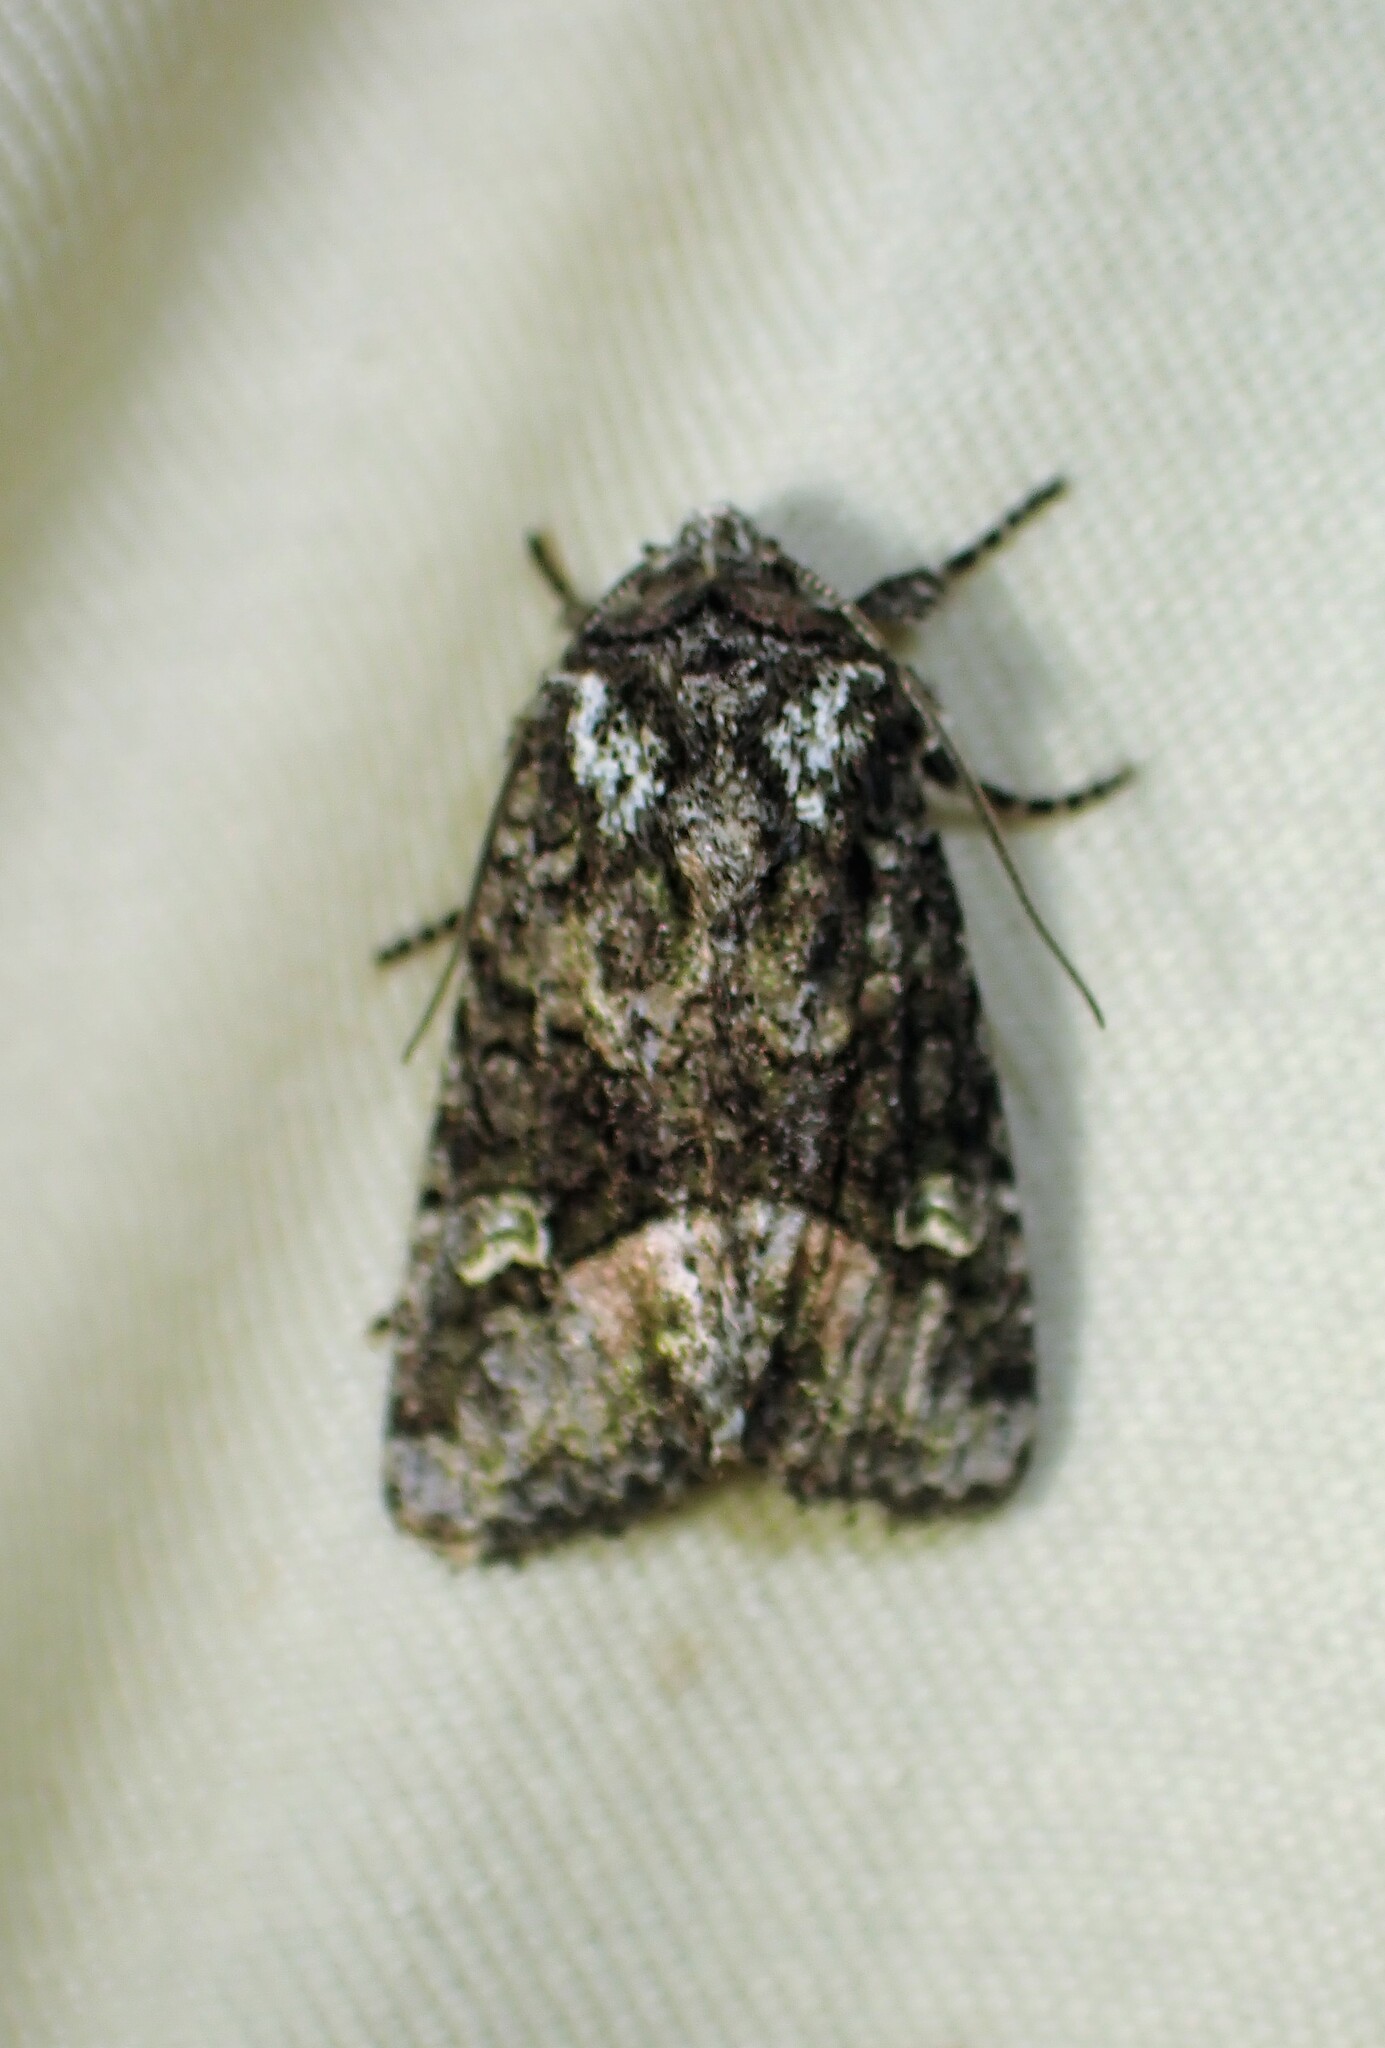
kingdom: Animalia
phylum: Arthropoda
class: Insecta
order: Lepidoptera
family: Noctuidae
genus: Lacinipolia
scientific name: Lacinipolia olivacea
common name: Olive arches moth
